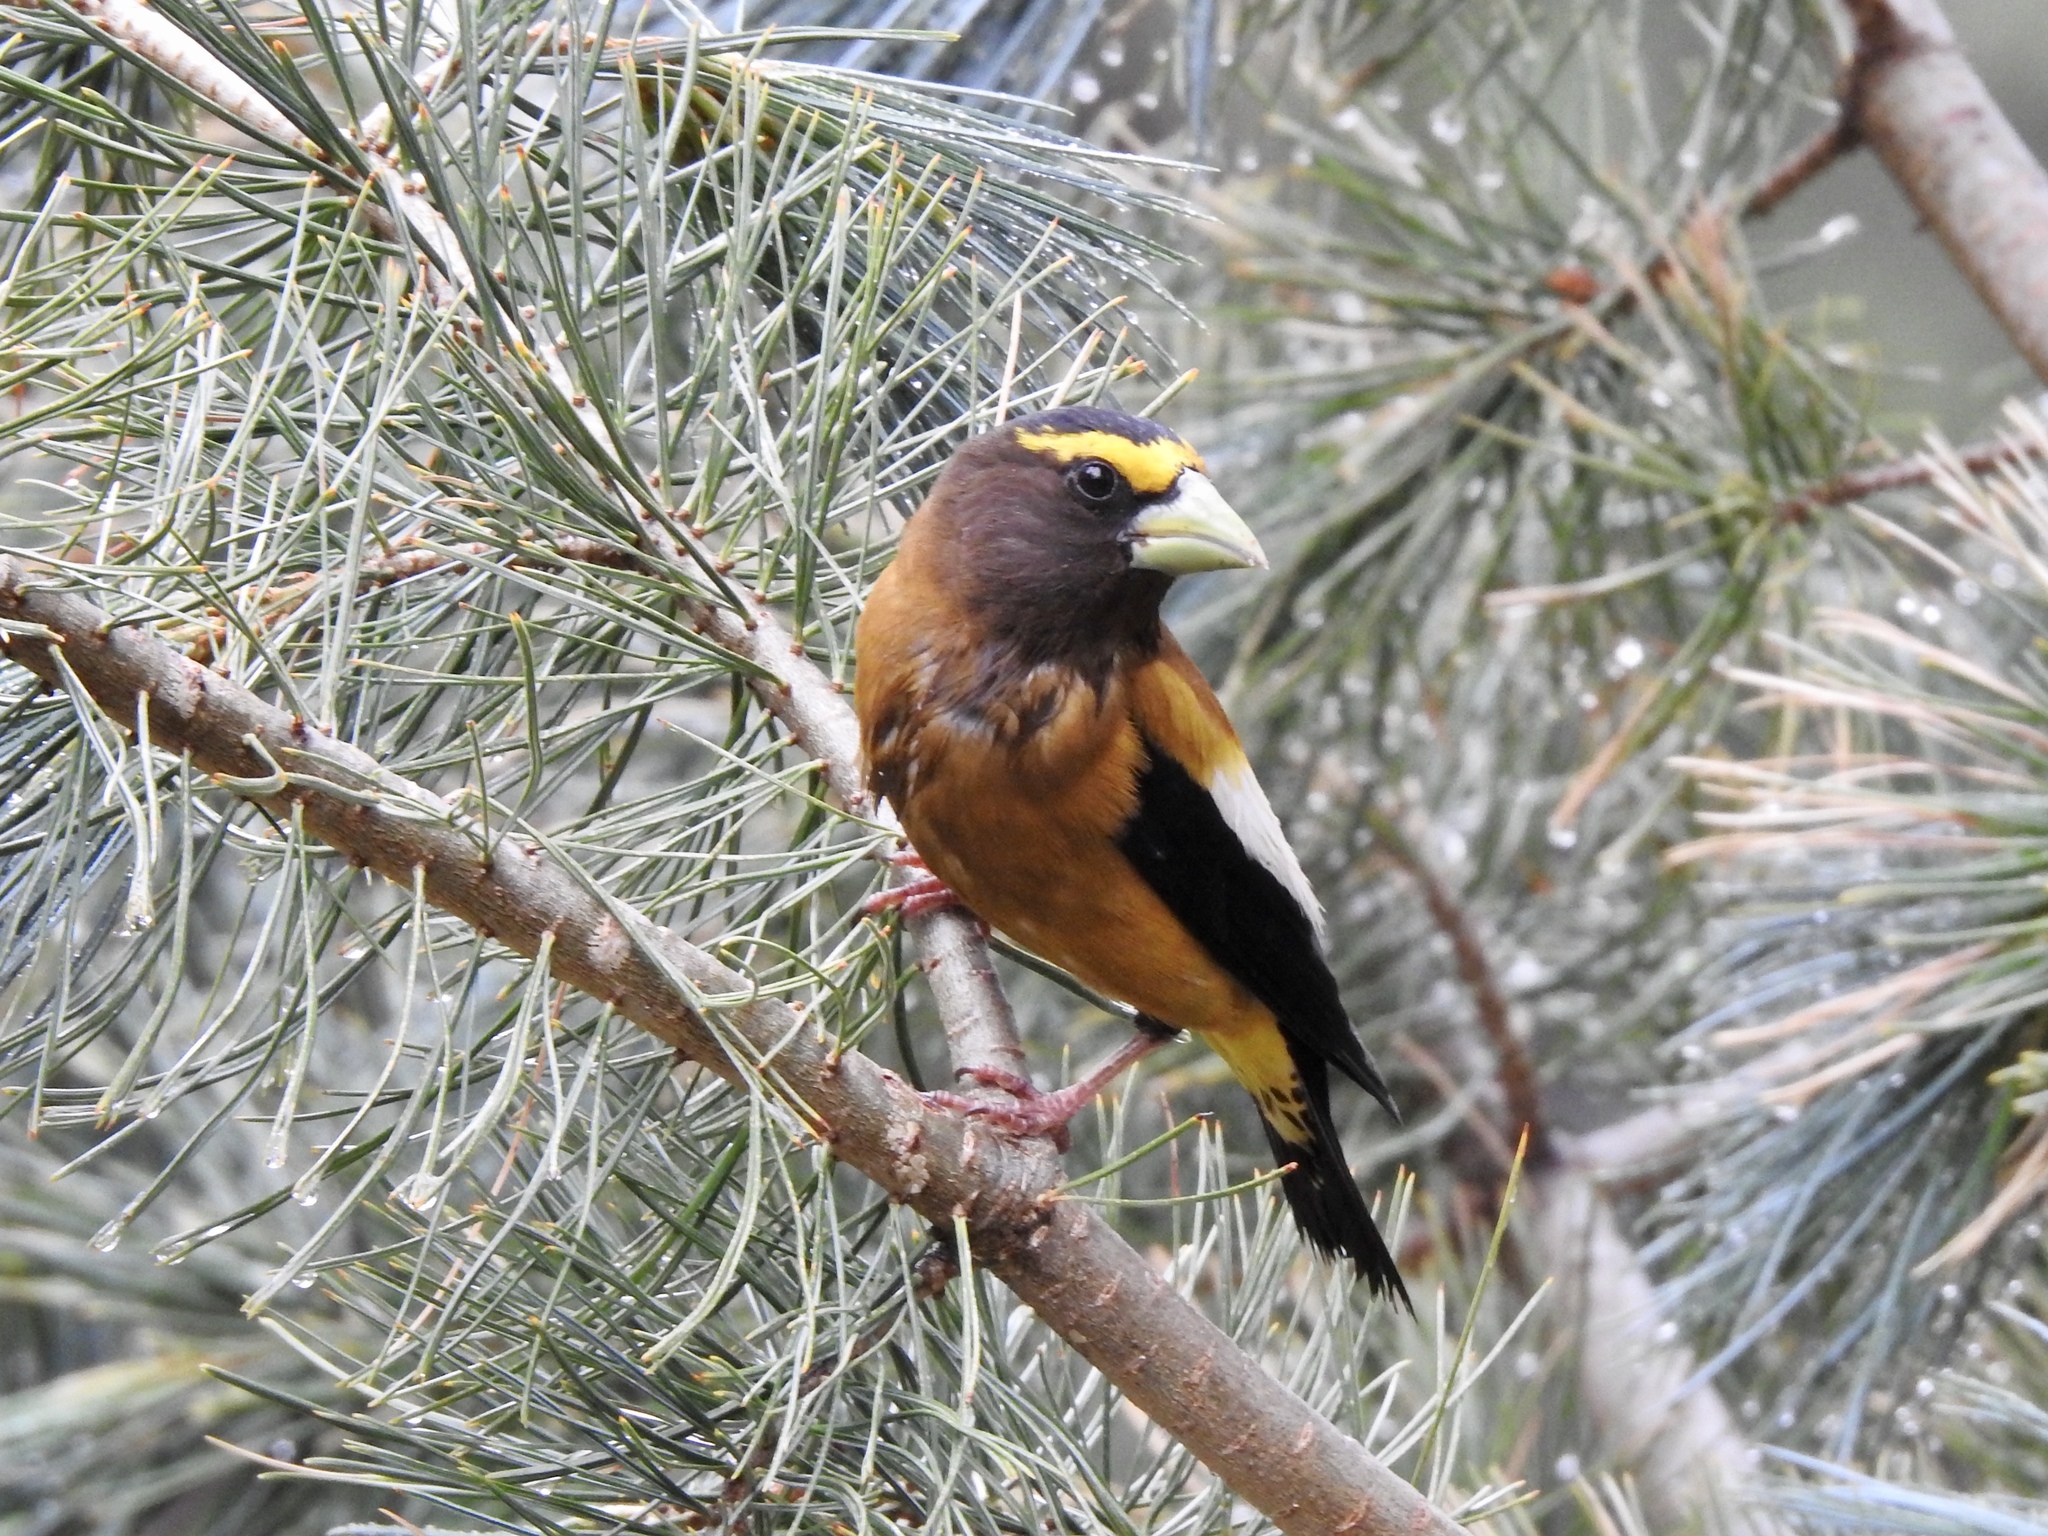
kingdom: Animalia
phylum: Chordata
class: Aves
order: Passeriformes
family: Fringillidae
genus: Hesperiphona
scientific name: Hesperiphona vespertina
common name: Evening grosbeak
